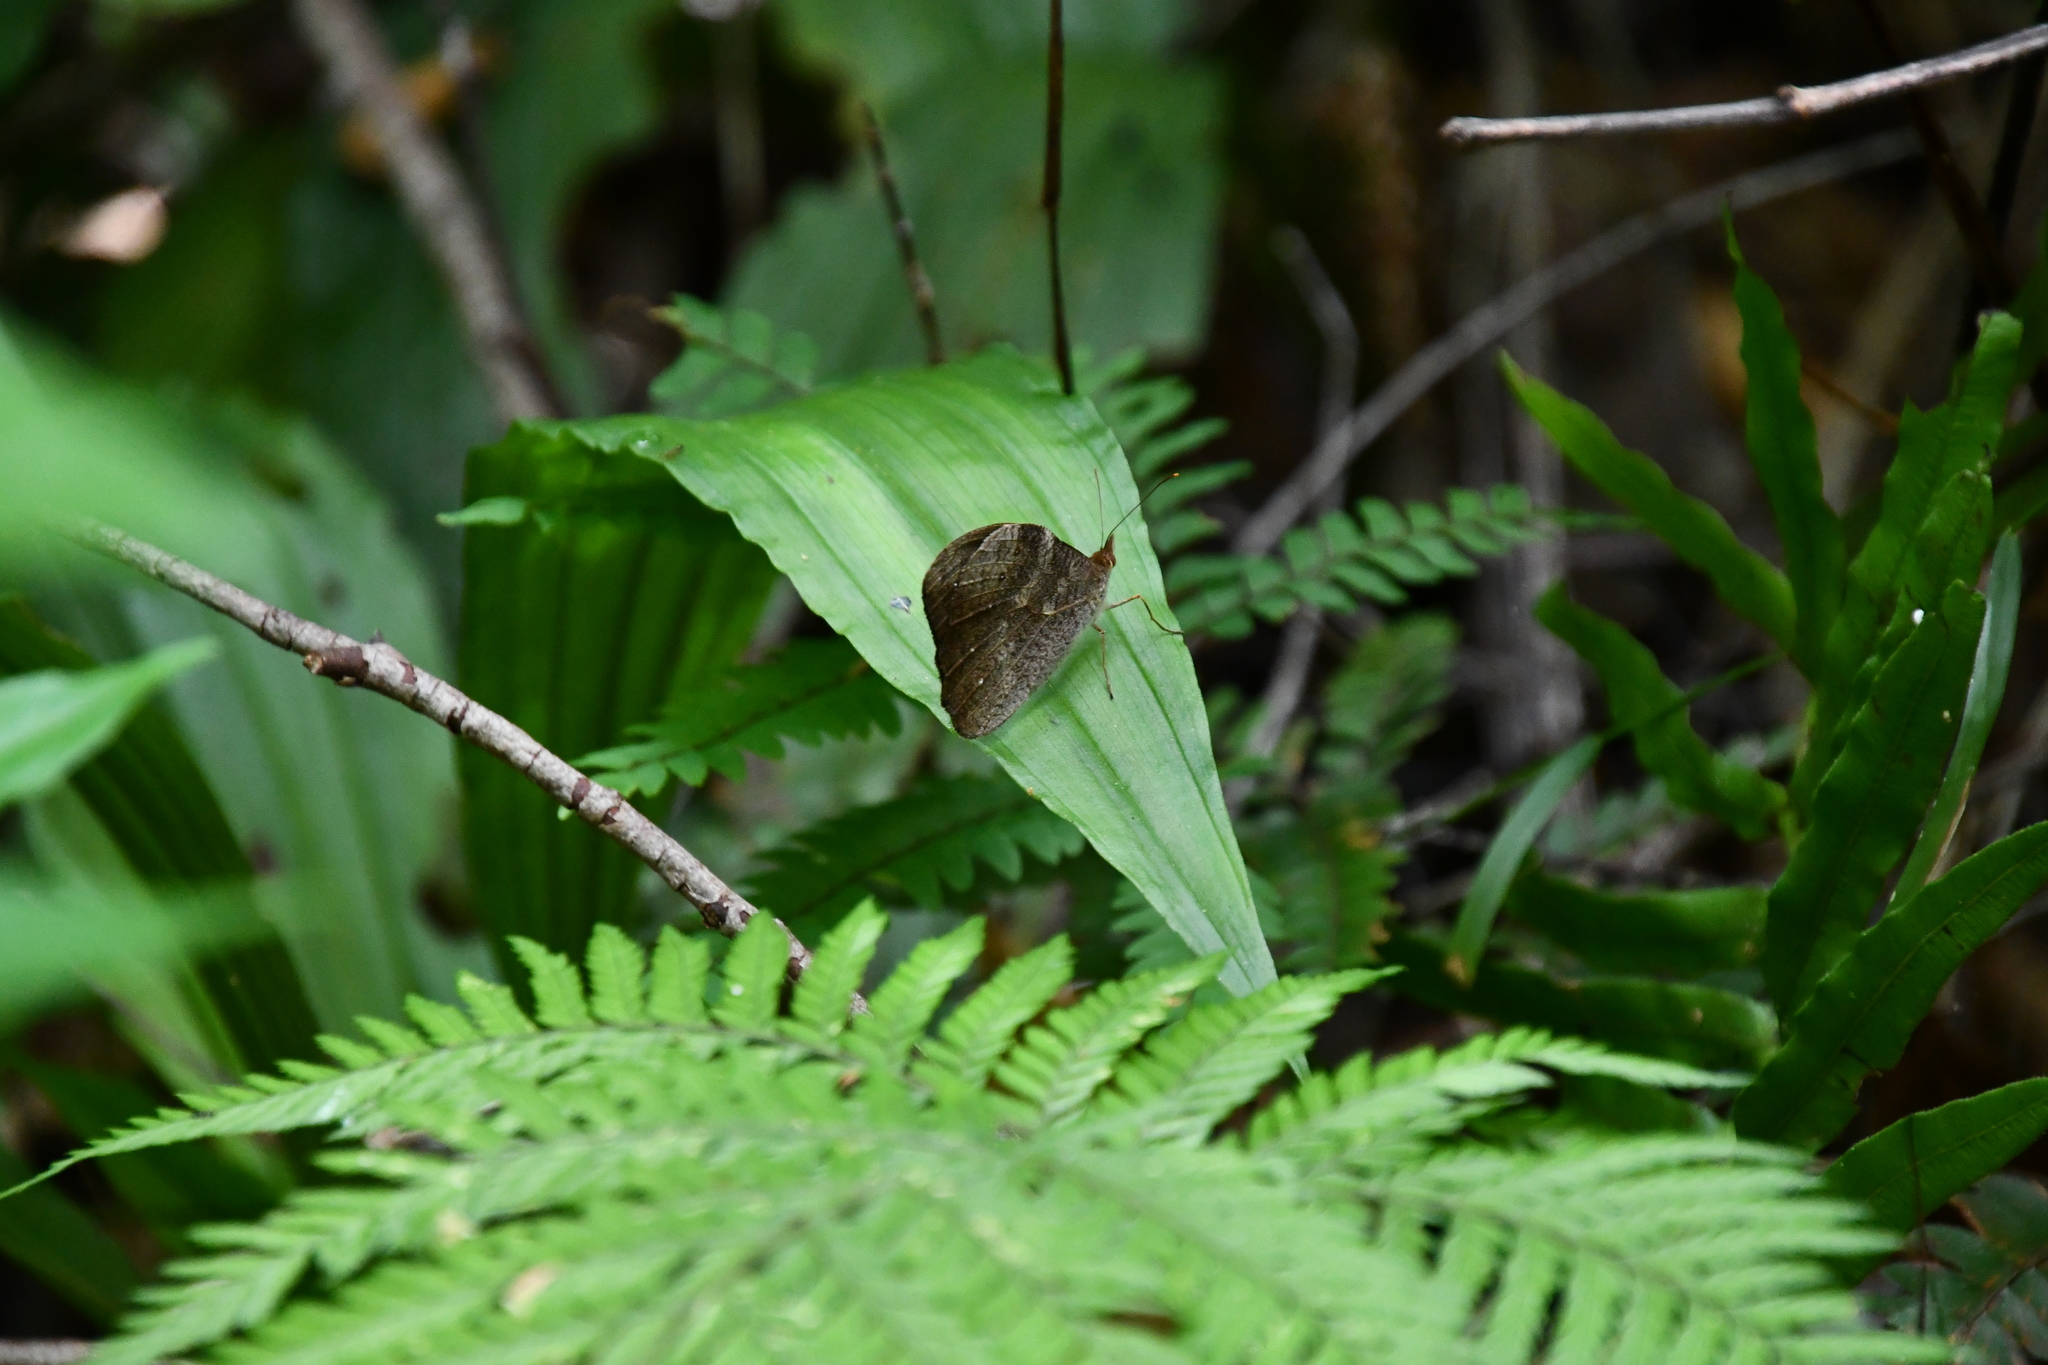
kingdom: Animalia
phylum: Arthropoda
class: Insecta
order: Lepidoptera
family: Nymphalidae
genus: Heteronympha
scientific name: Heteronympha mirifica
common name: Wonder brown
